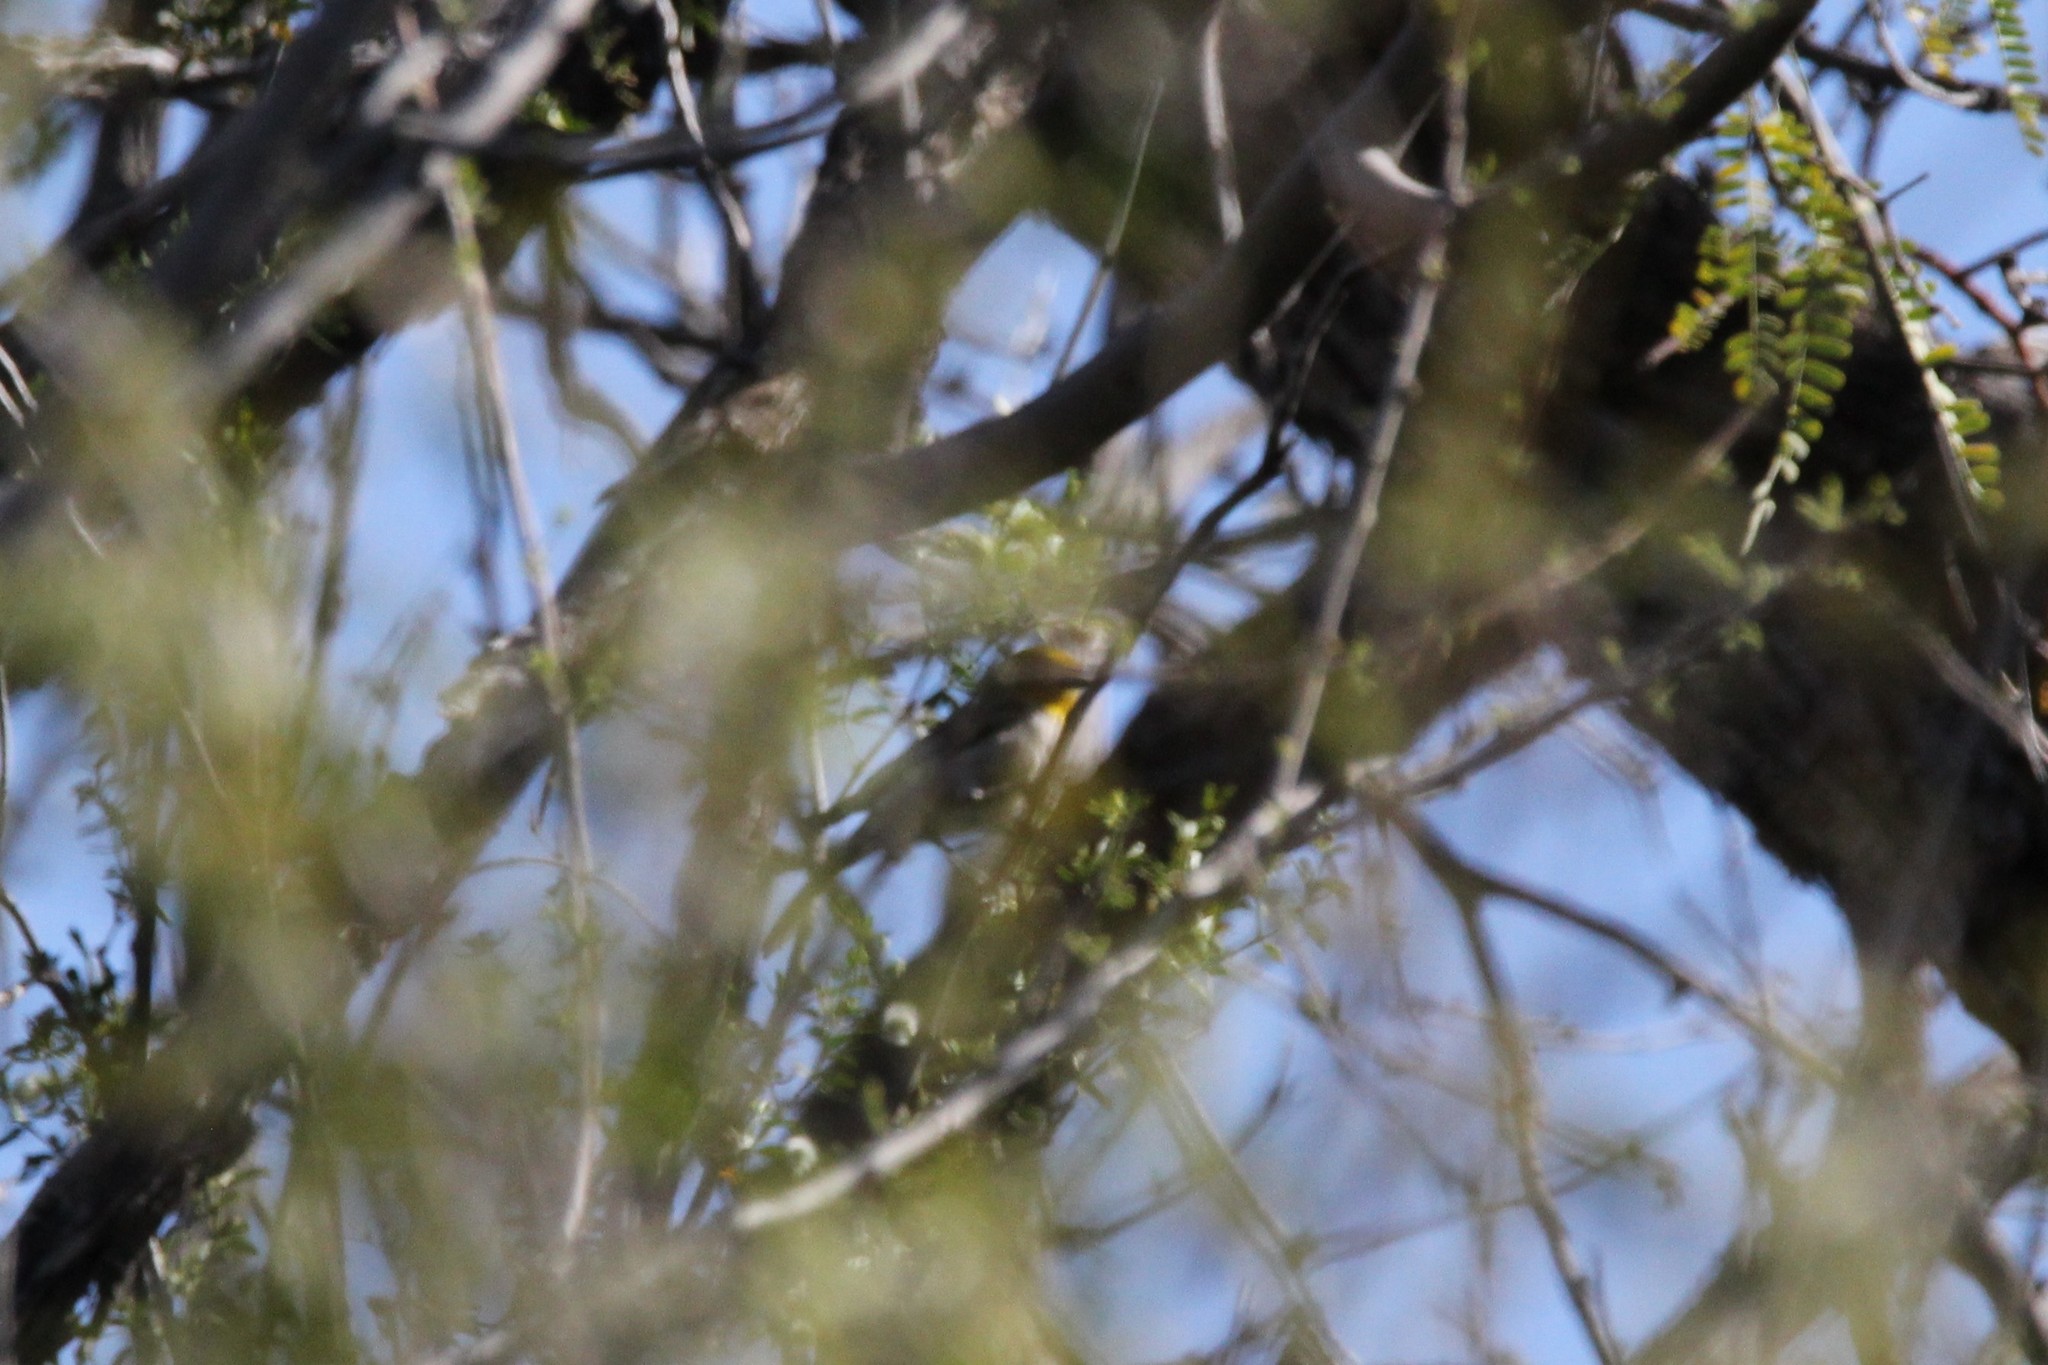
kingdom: Animalia
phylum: Chordata
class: Aves
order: Passeriformes
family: Remizidae
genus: Auriparus
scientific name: Auriparus flaviceps
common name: Verdin
